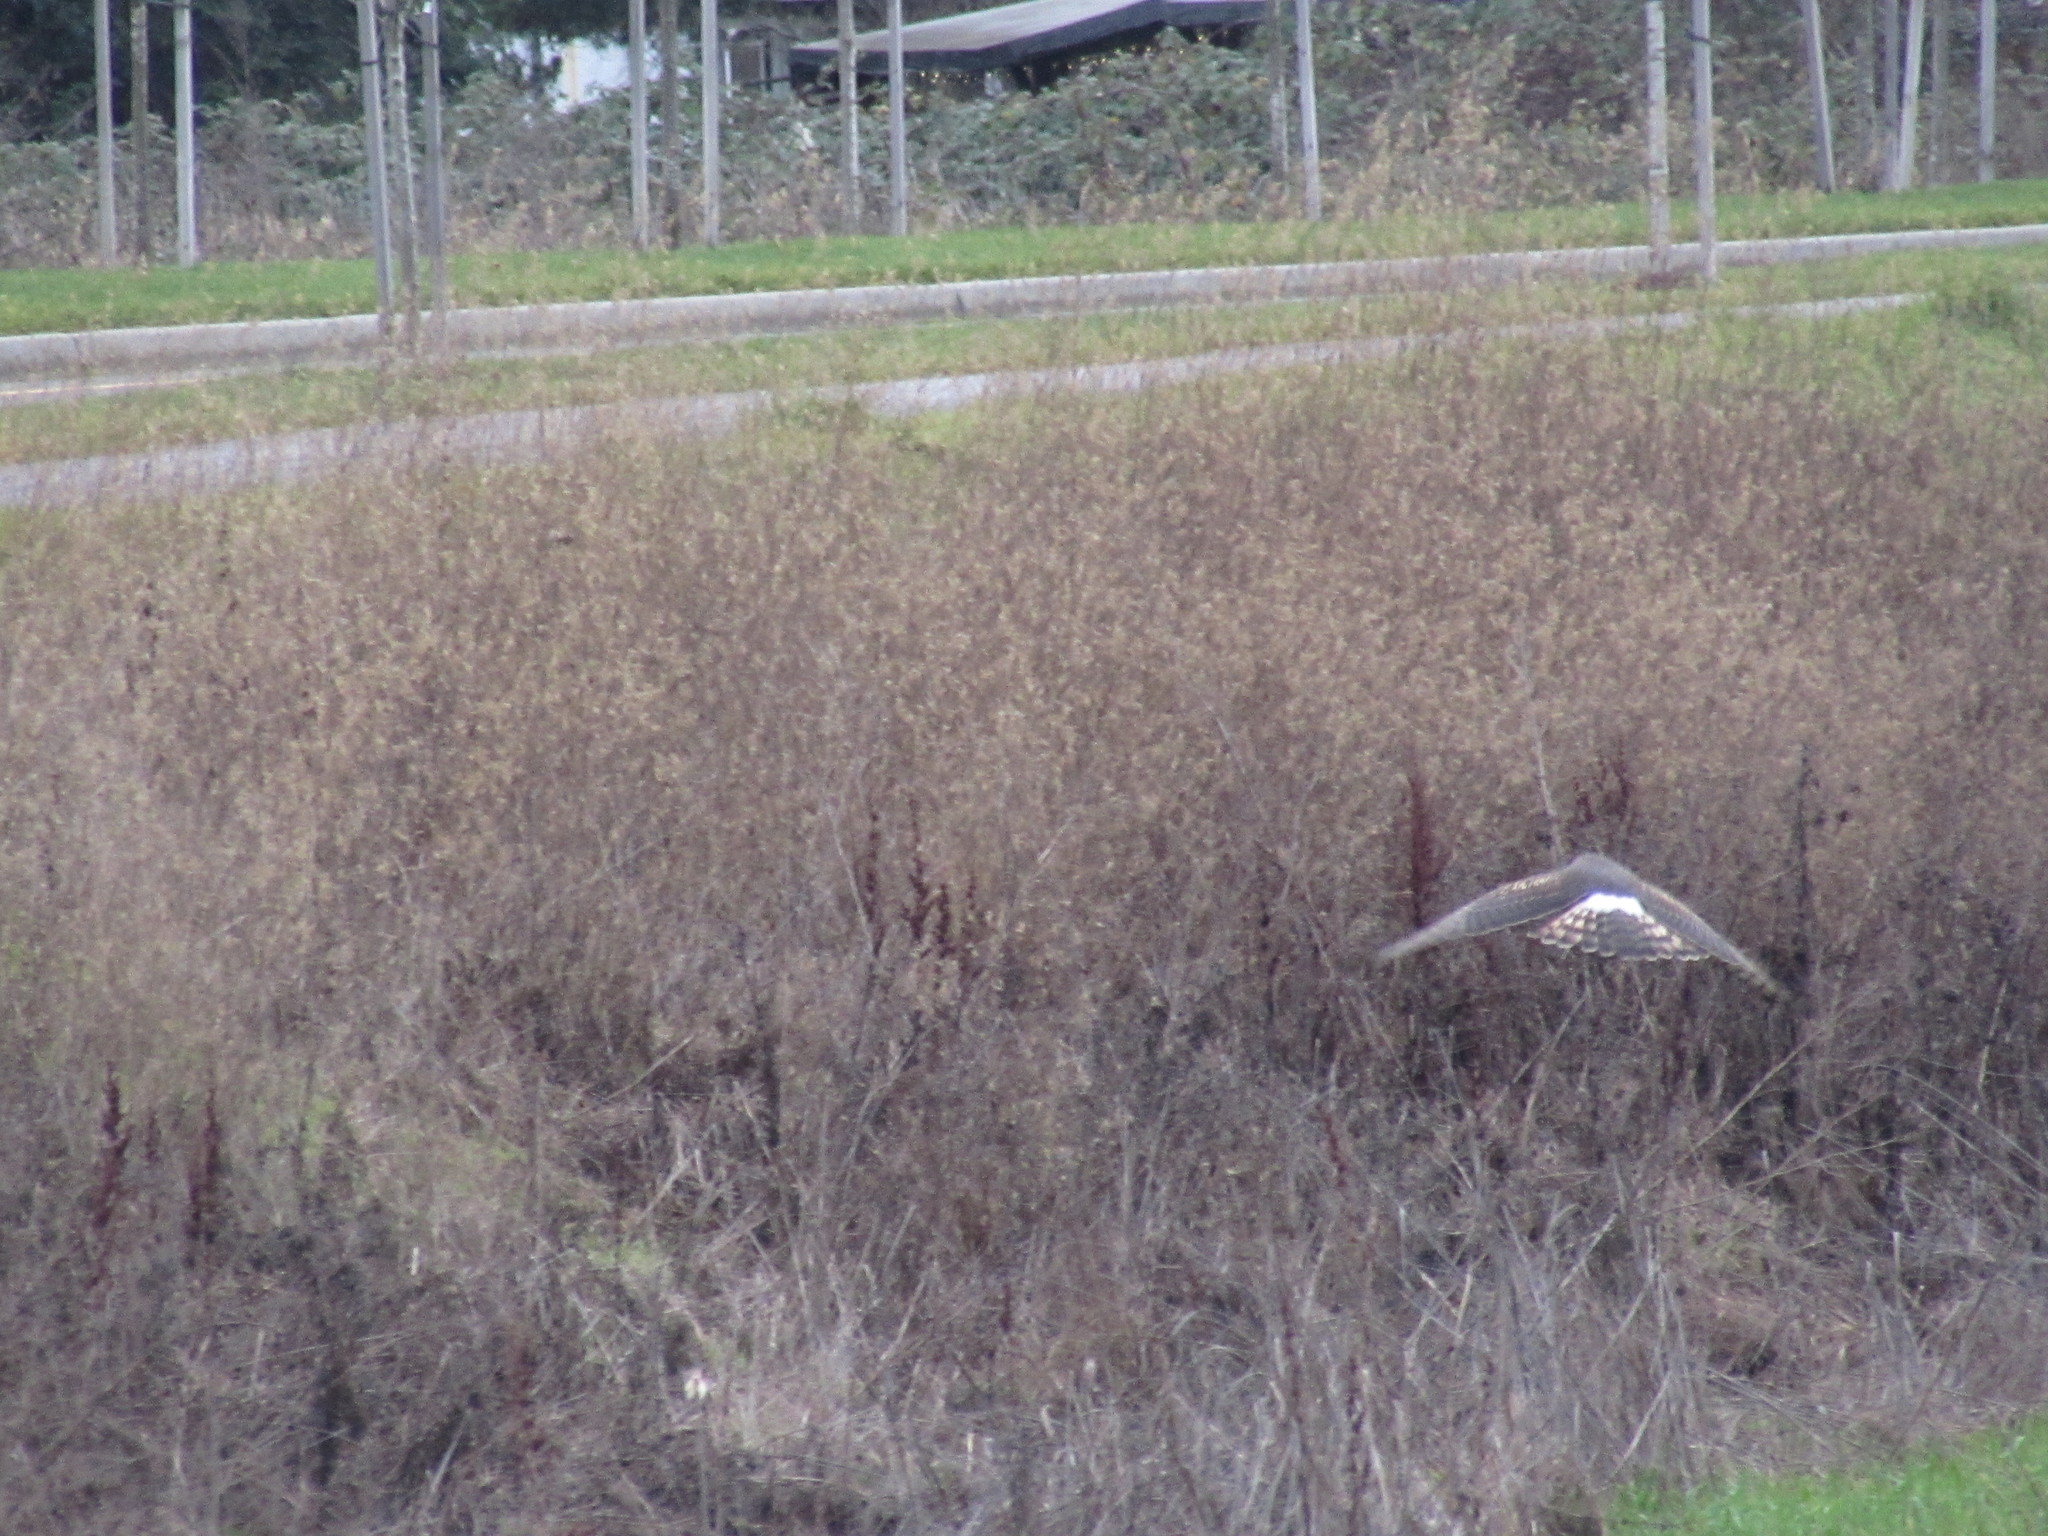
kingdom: Animalia
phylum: Chordata
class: Aves
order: Accipitriformes
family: Accipitridae
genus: Circus
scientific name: Circus cyaneus
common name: Hen harrier
